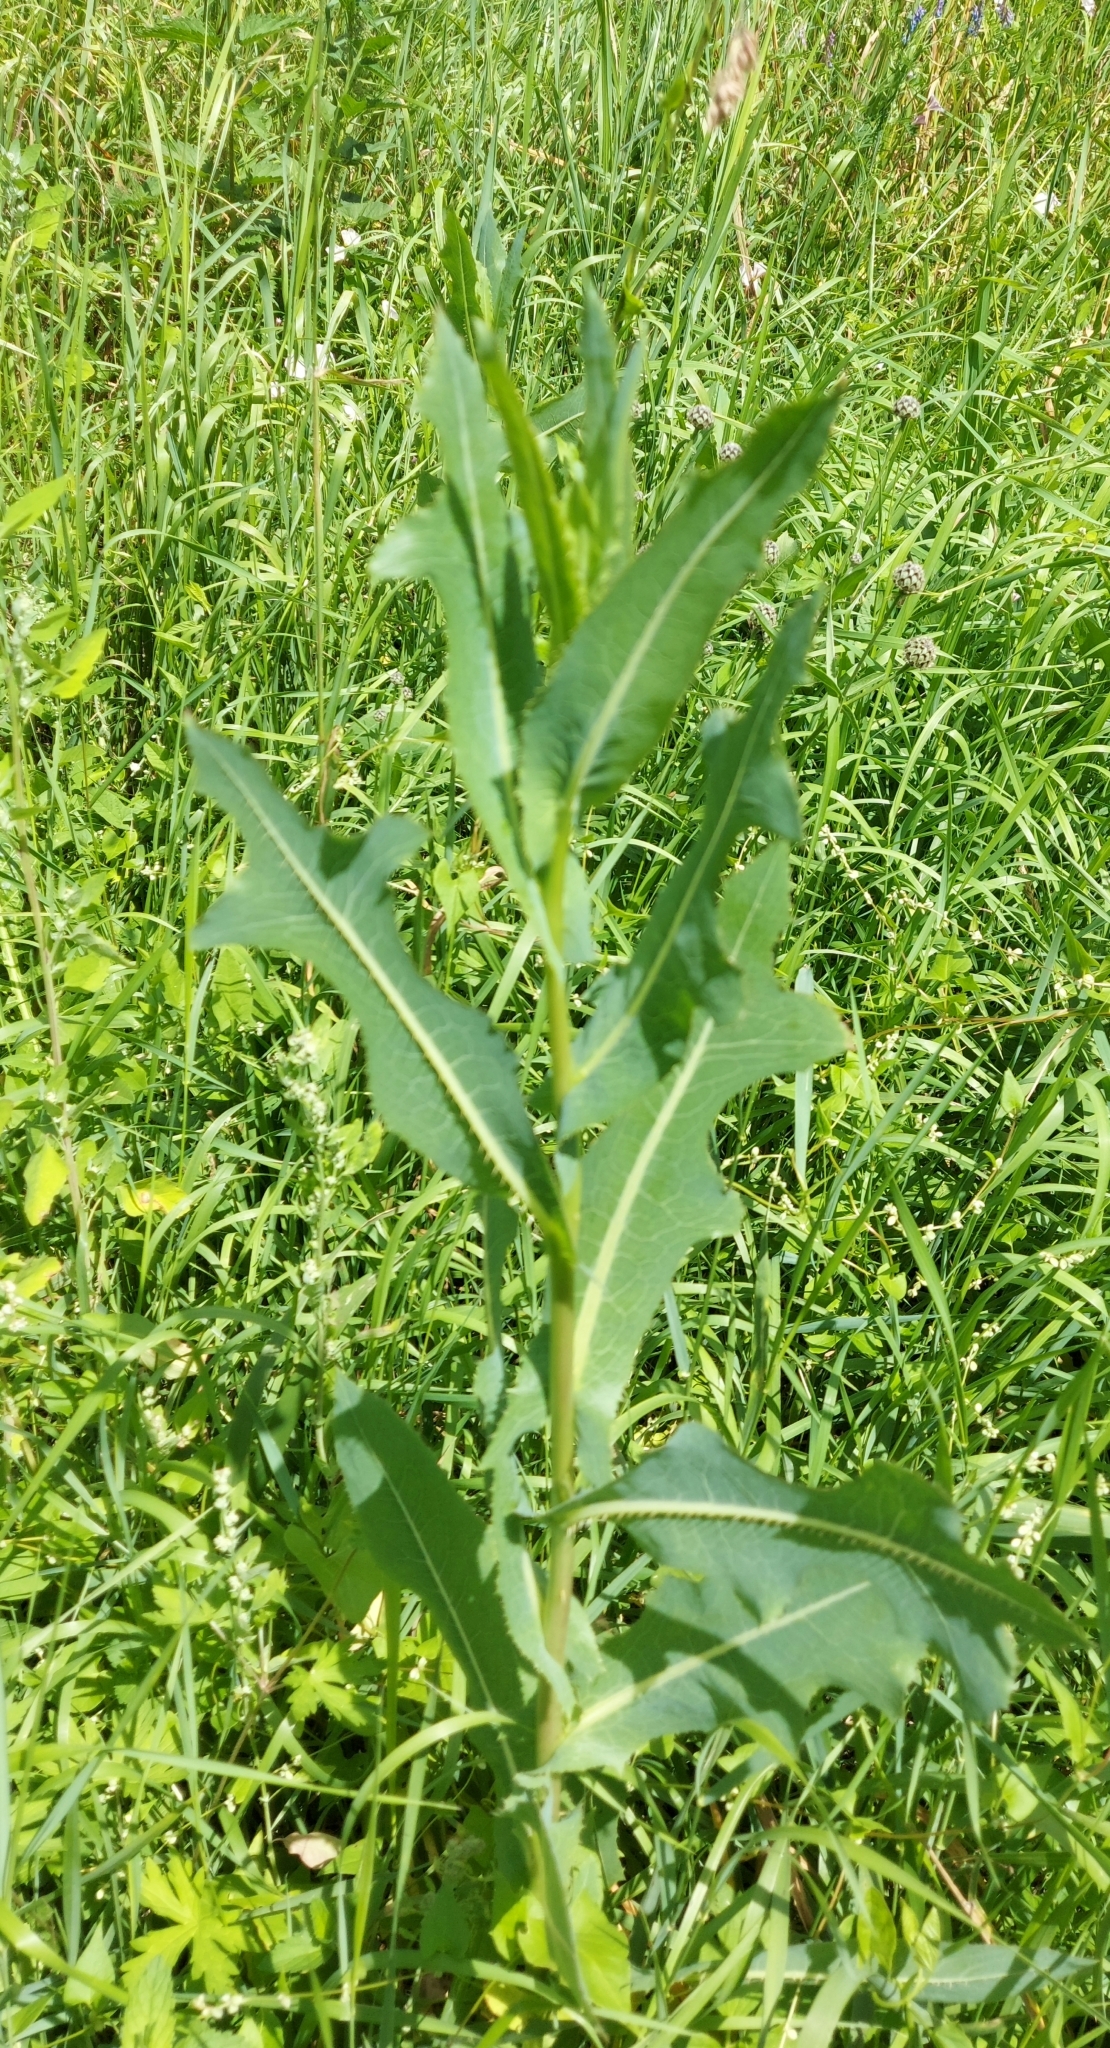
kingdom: Plantae
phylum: Tracheophyta
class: Magnoliopsida
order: Asterales
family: Asteraceae
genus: Lactuca
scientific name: Lactuca serriola
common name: Prickly lettuce
